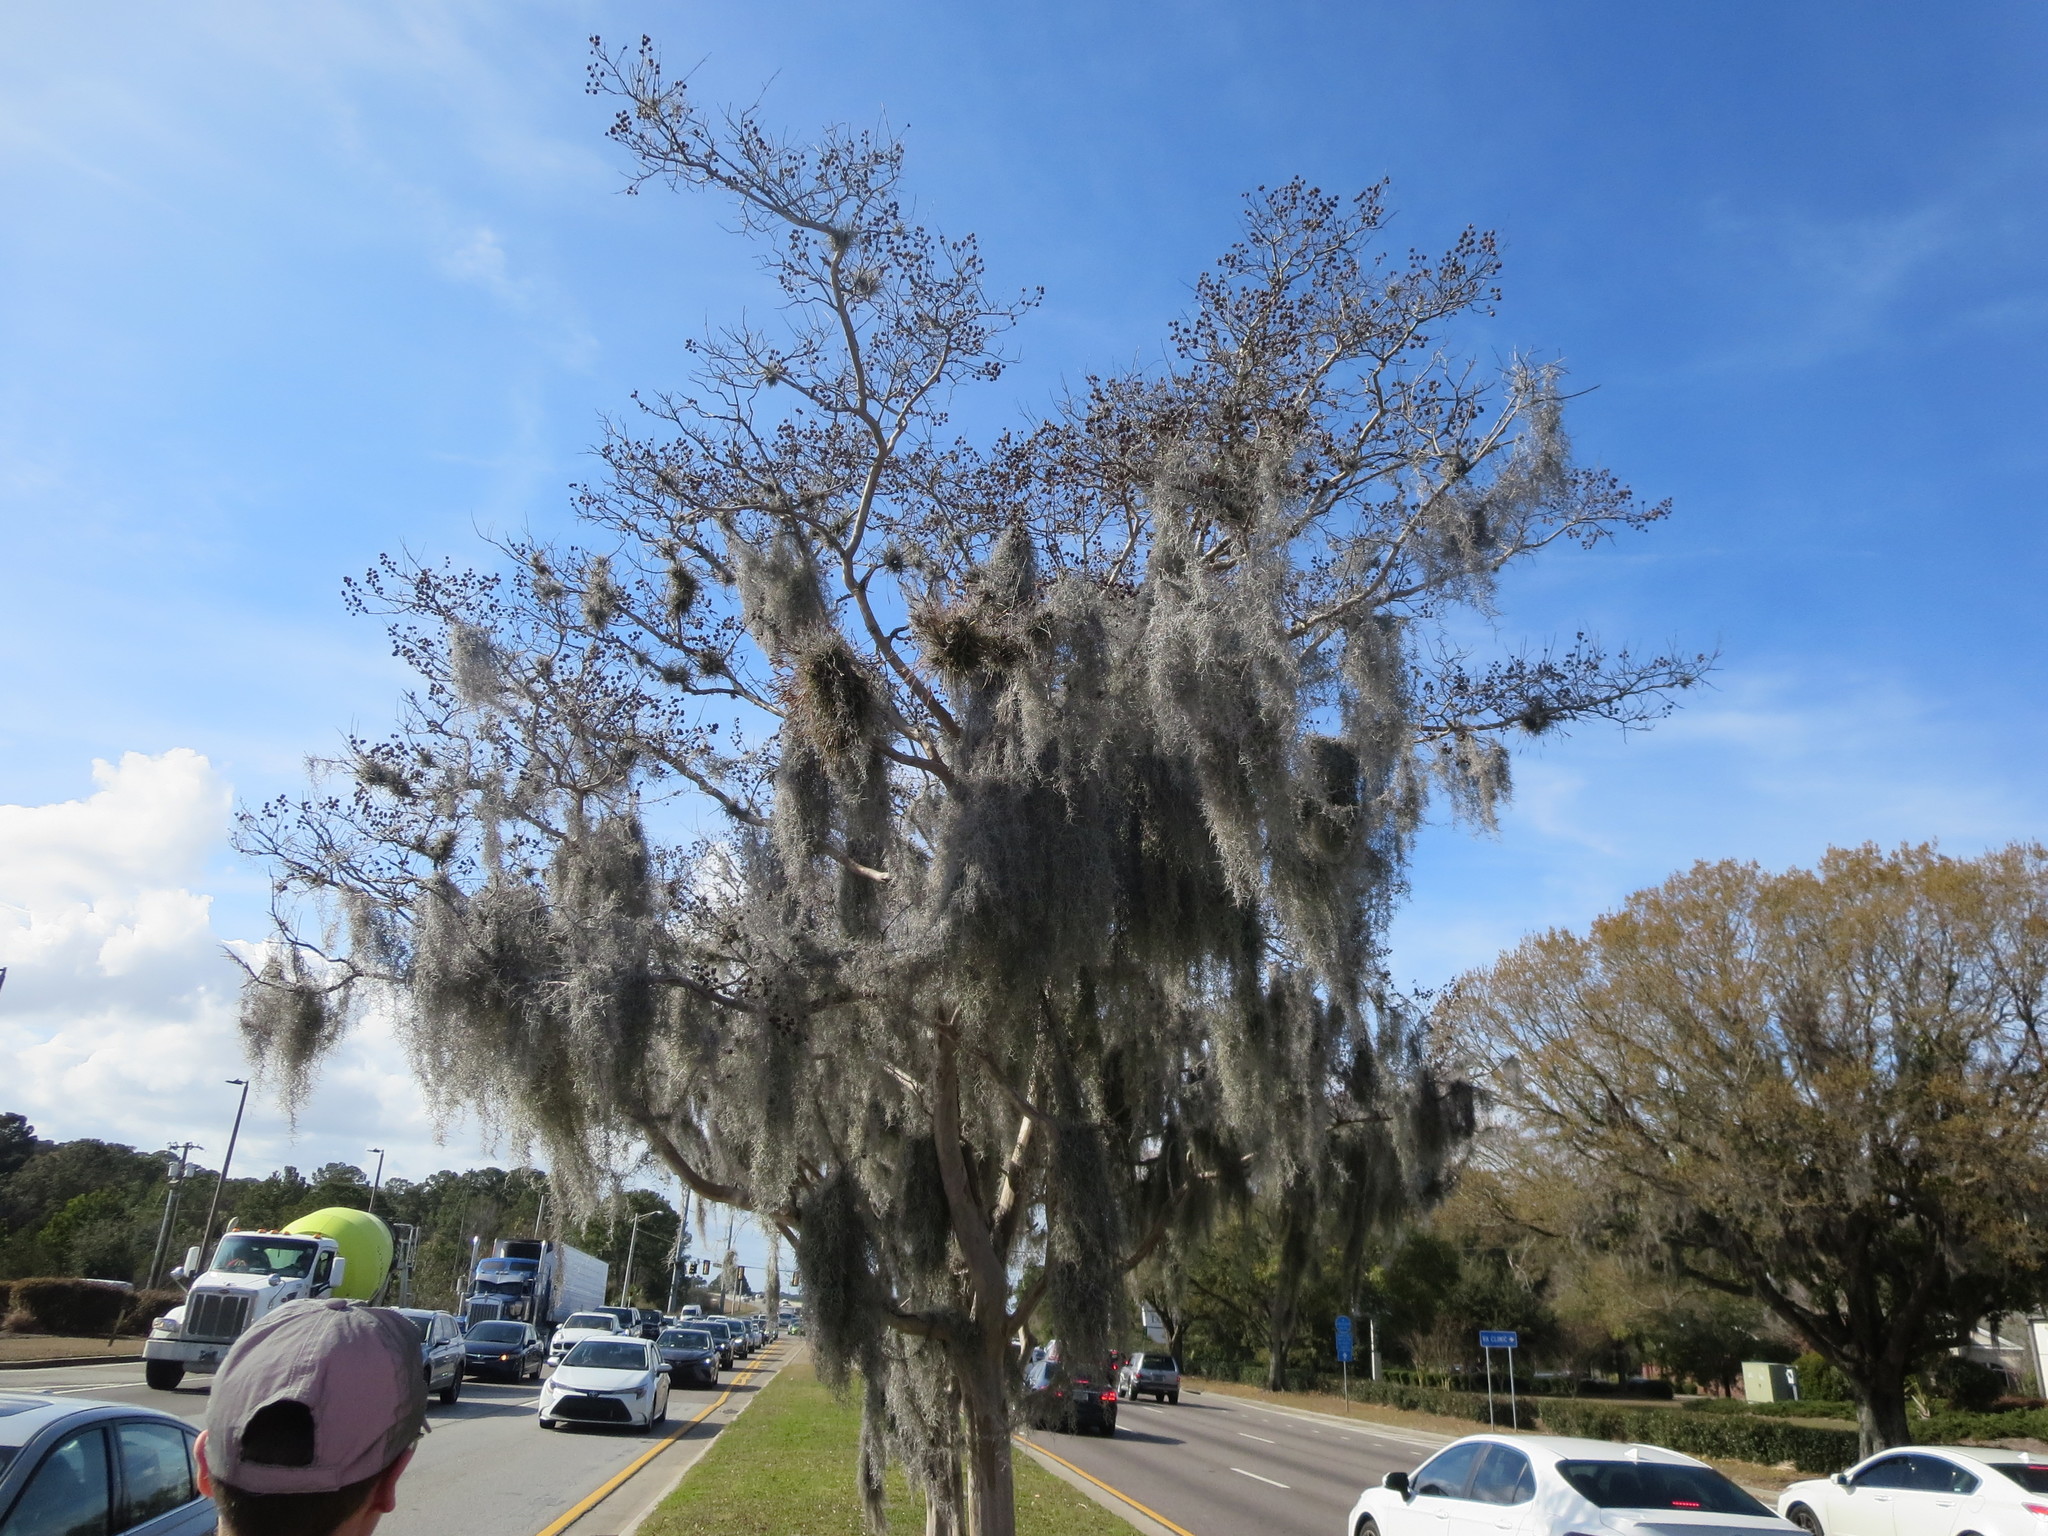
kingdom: Plantae
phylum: Tracheophyta
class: Liliopsida
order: Poales
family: Bromeliaceae
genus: Tillandsia
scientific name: Tillandsia usneoides
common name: Spanish moss
